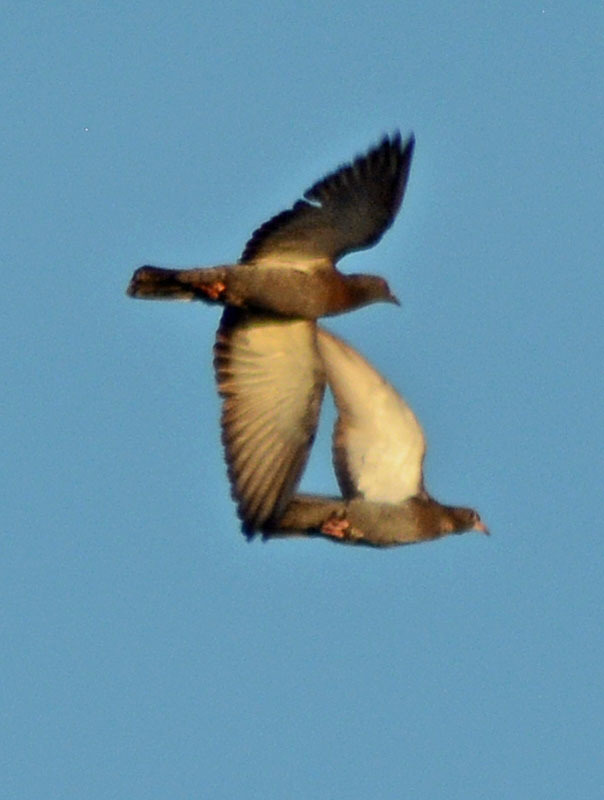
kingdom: Animalia
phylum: Chordata
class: Aves
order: Columbiformes
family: Columbidae
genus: Columba
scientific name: Columba livia
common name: Rock pigeon
